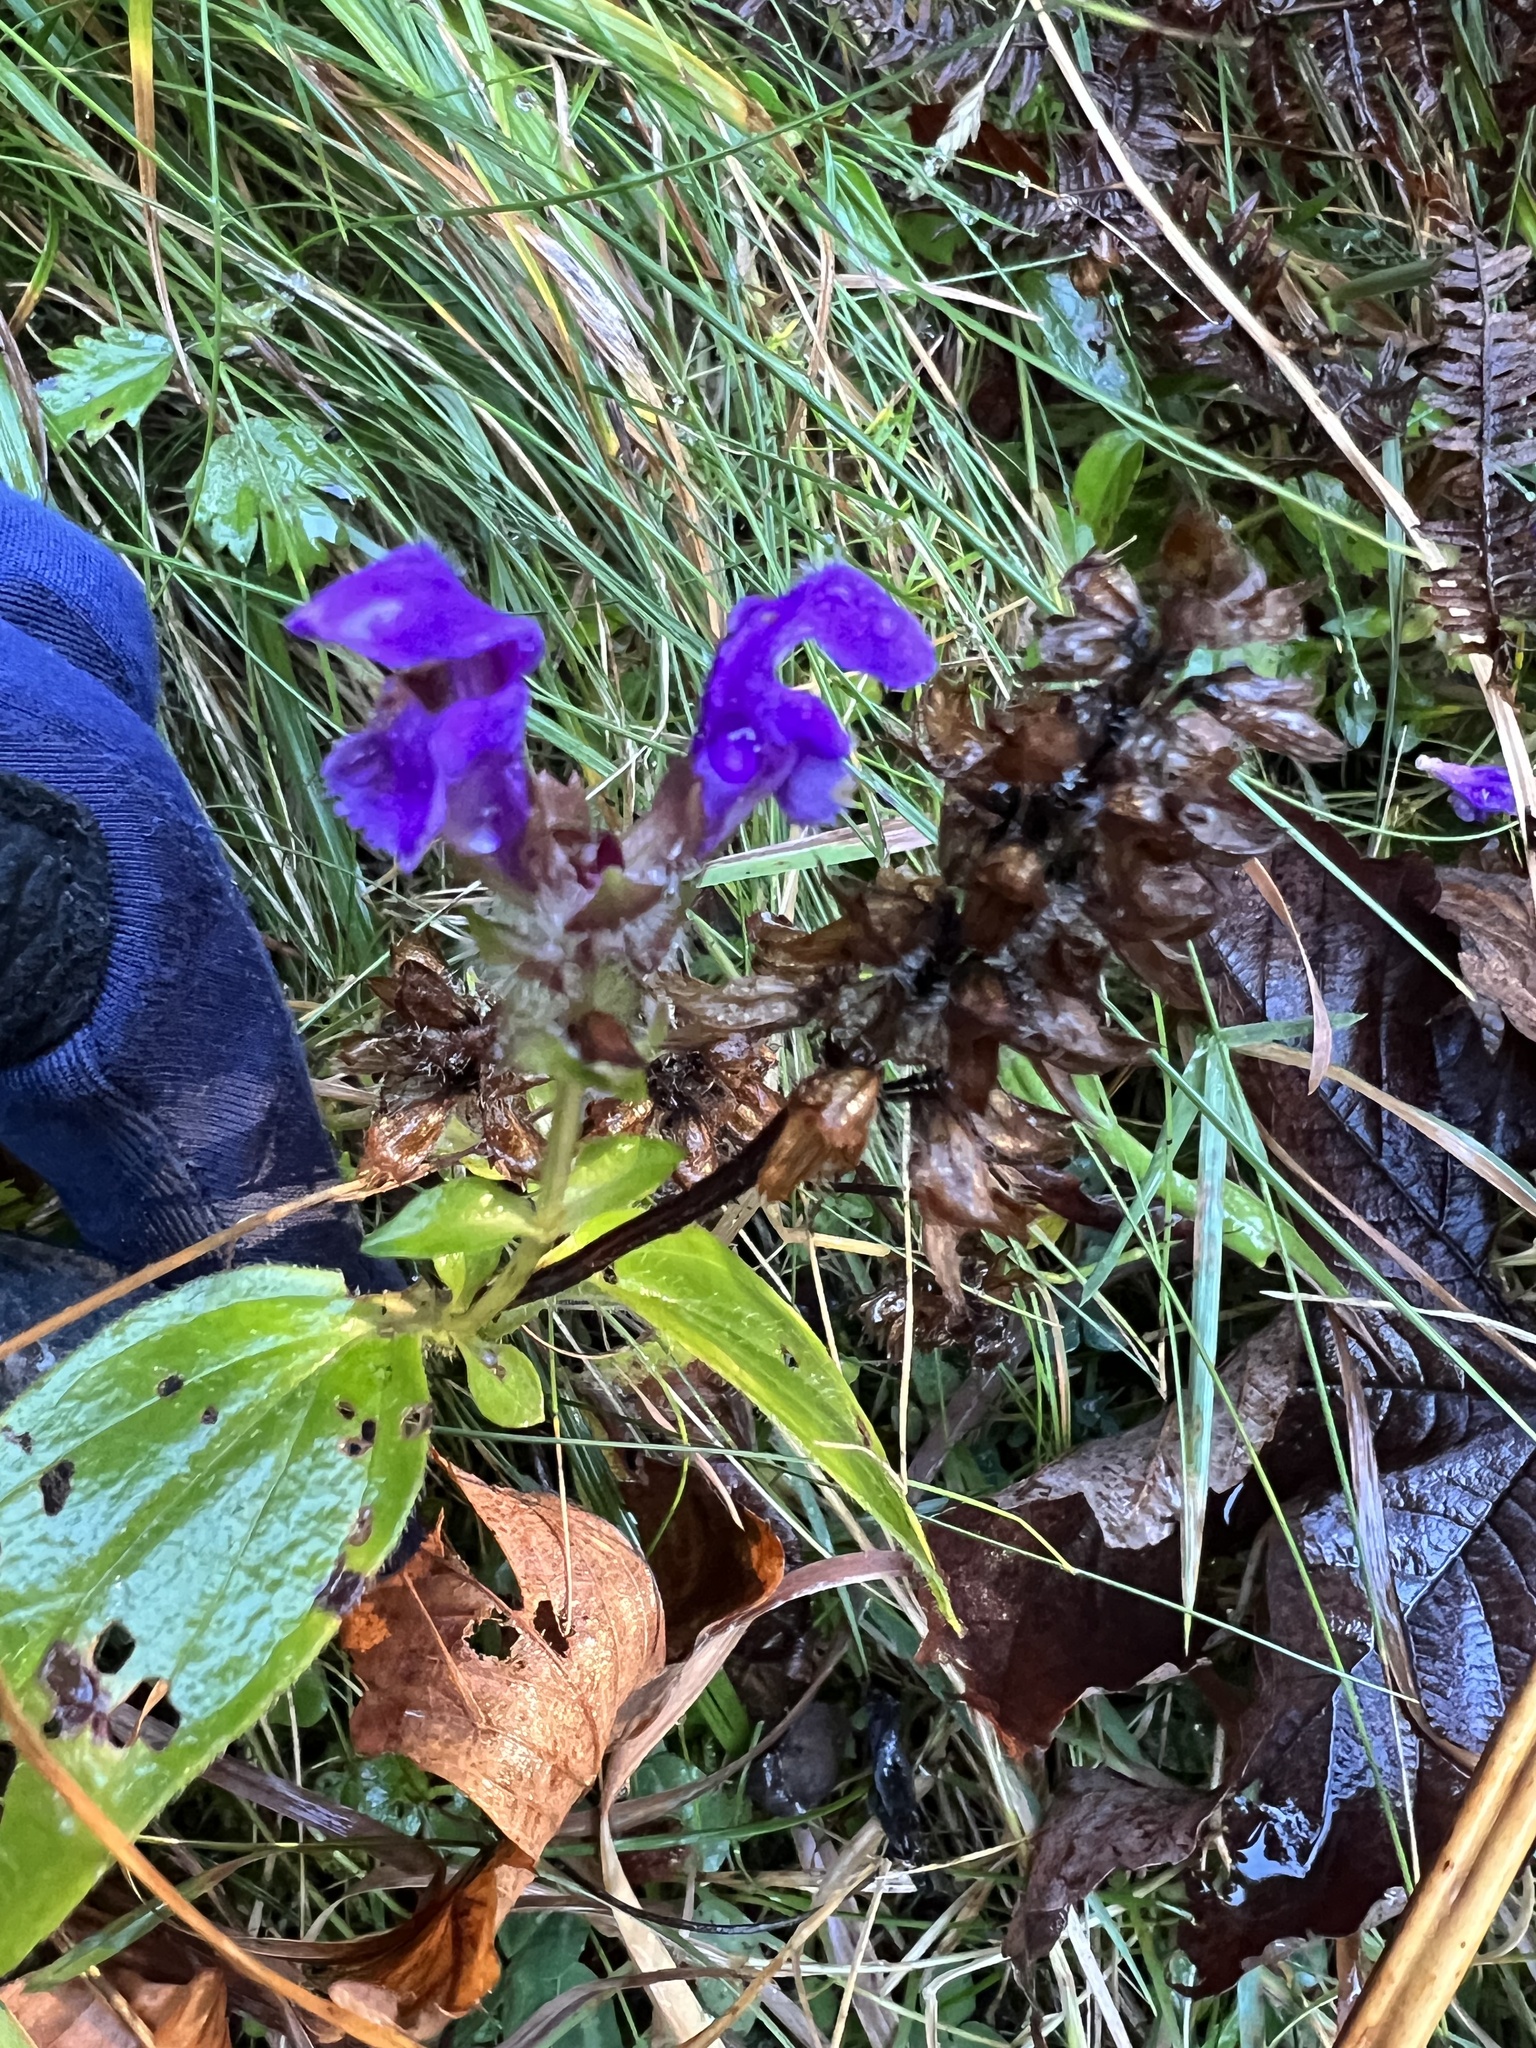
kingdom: Plantae
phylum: Tracheophyta
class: Magnoliopsida
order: Lamiales
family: Lamiaceae
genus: Prunella
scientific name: Prunella grandiflora
